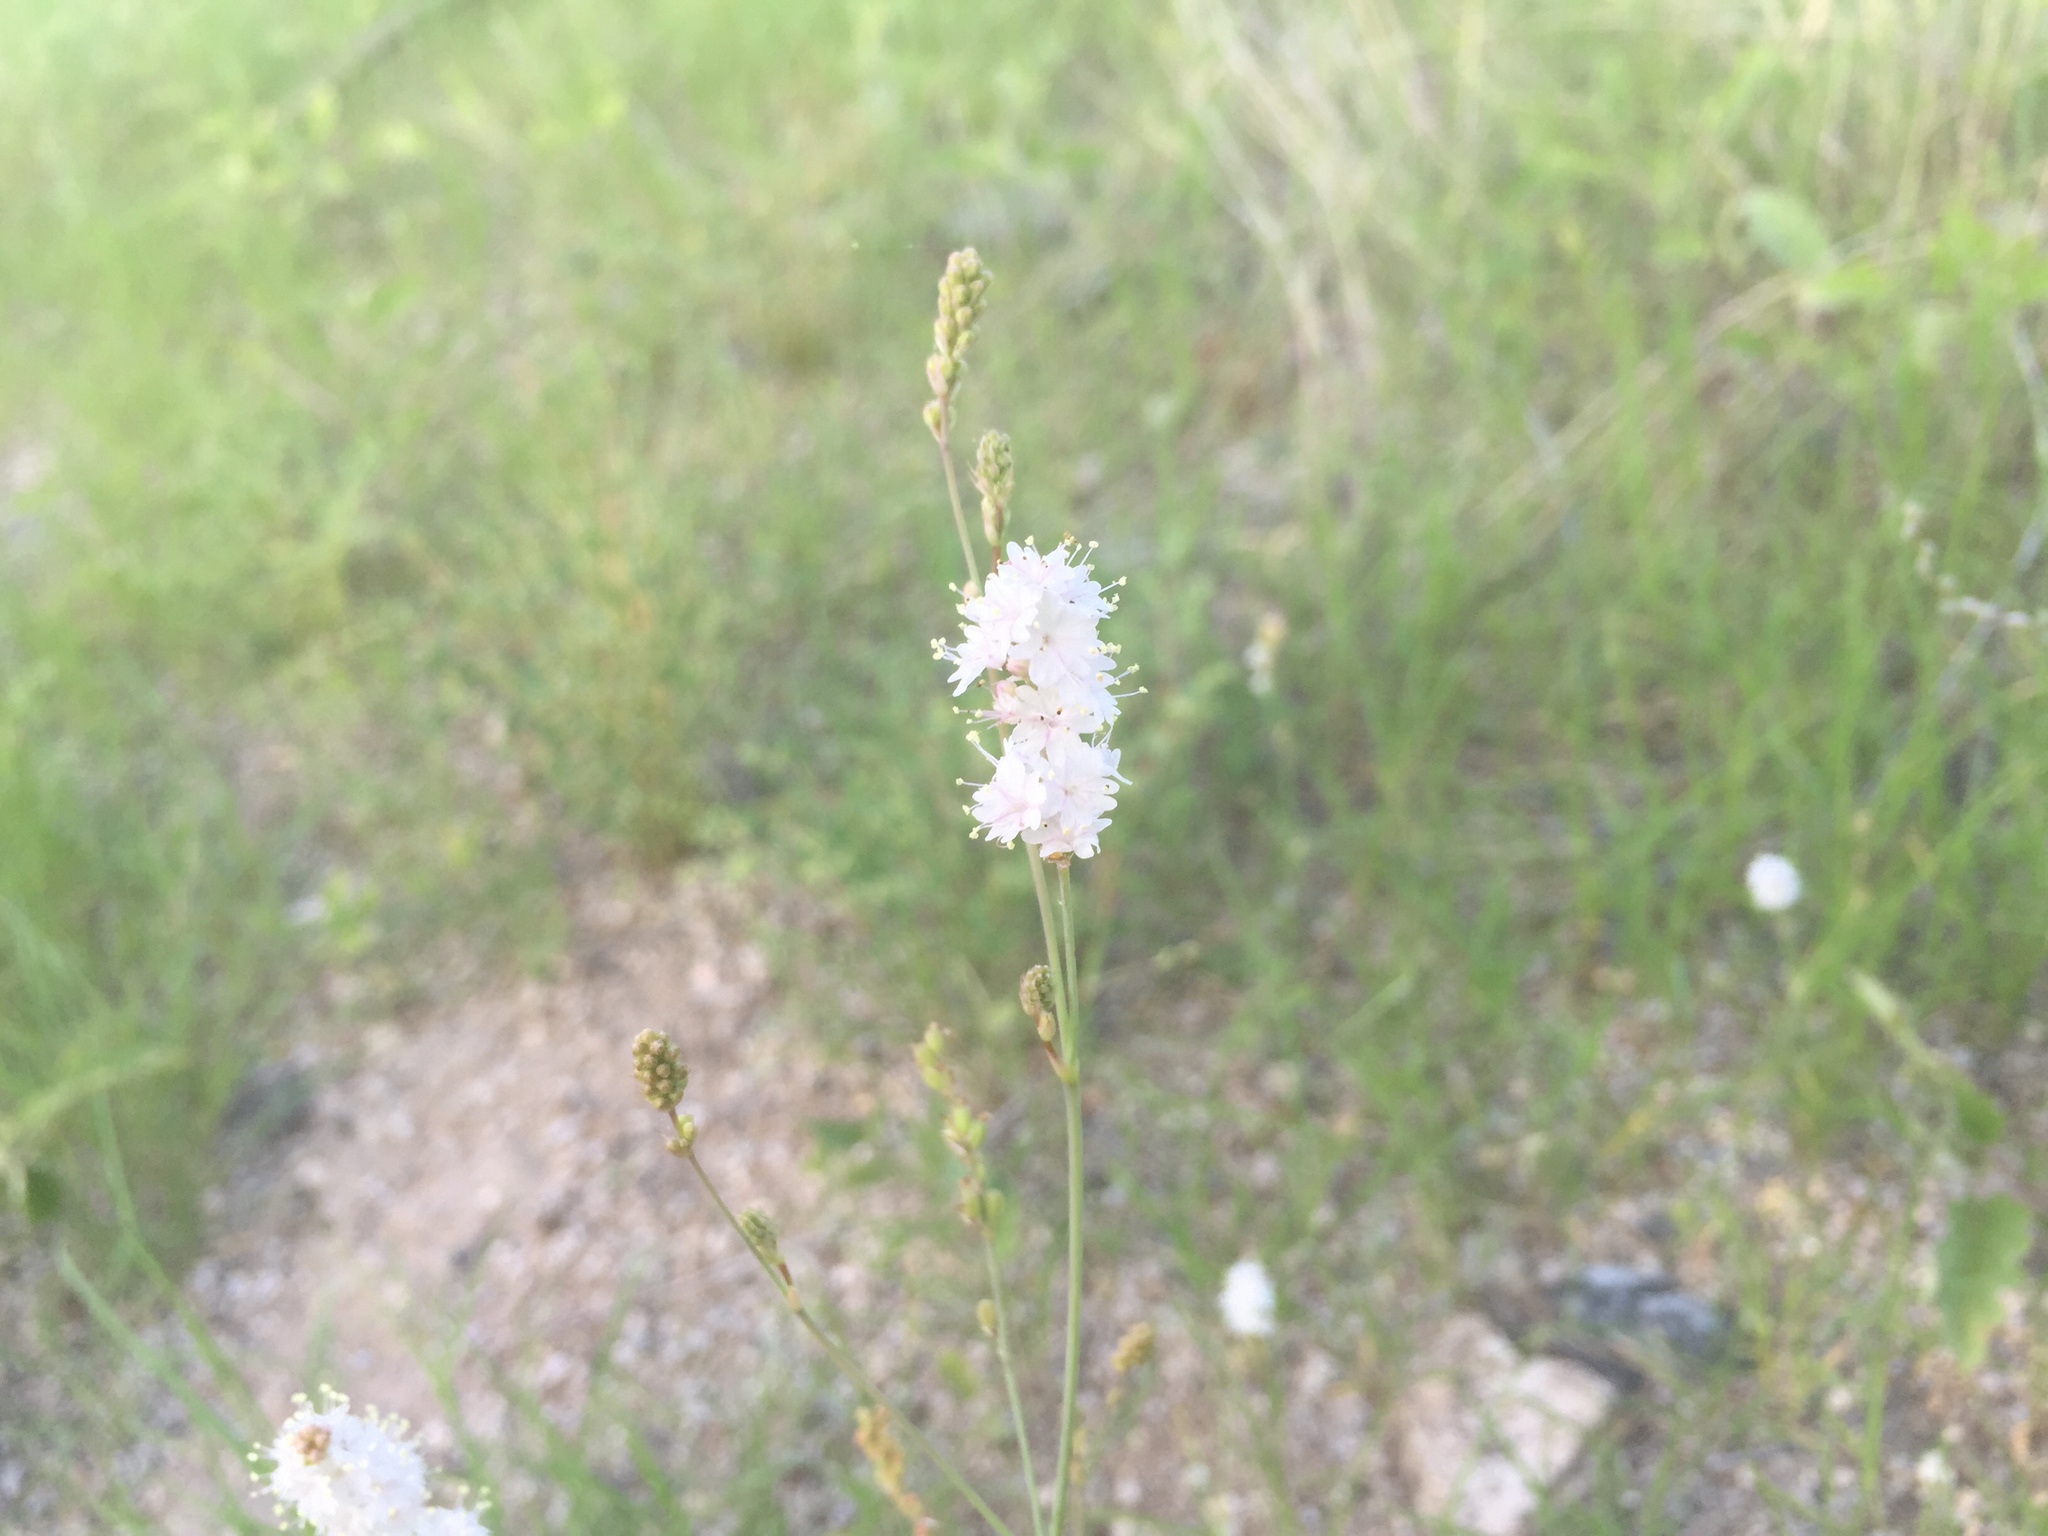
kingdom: Plantae
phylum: Tracheophyta
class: Magnoliopsida
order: Caryophyllales
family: Nyctaginaceae
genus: Boerhavia
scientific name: Boerhavia xantii
